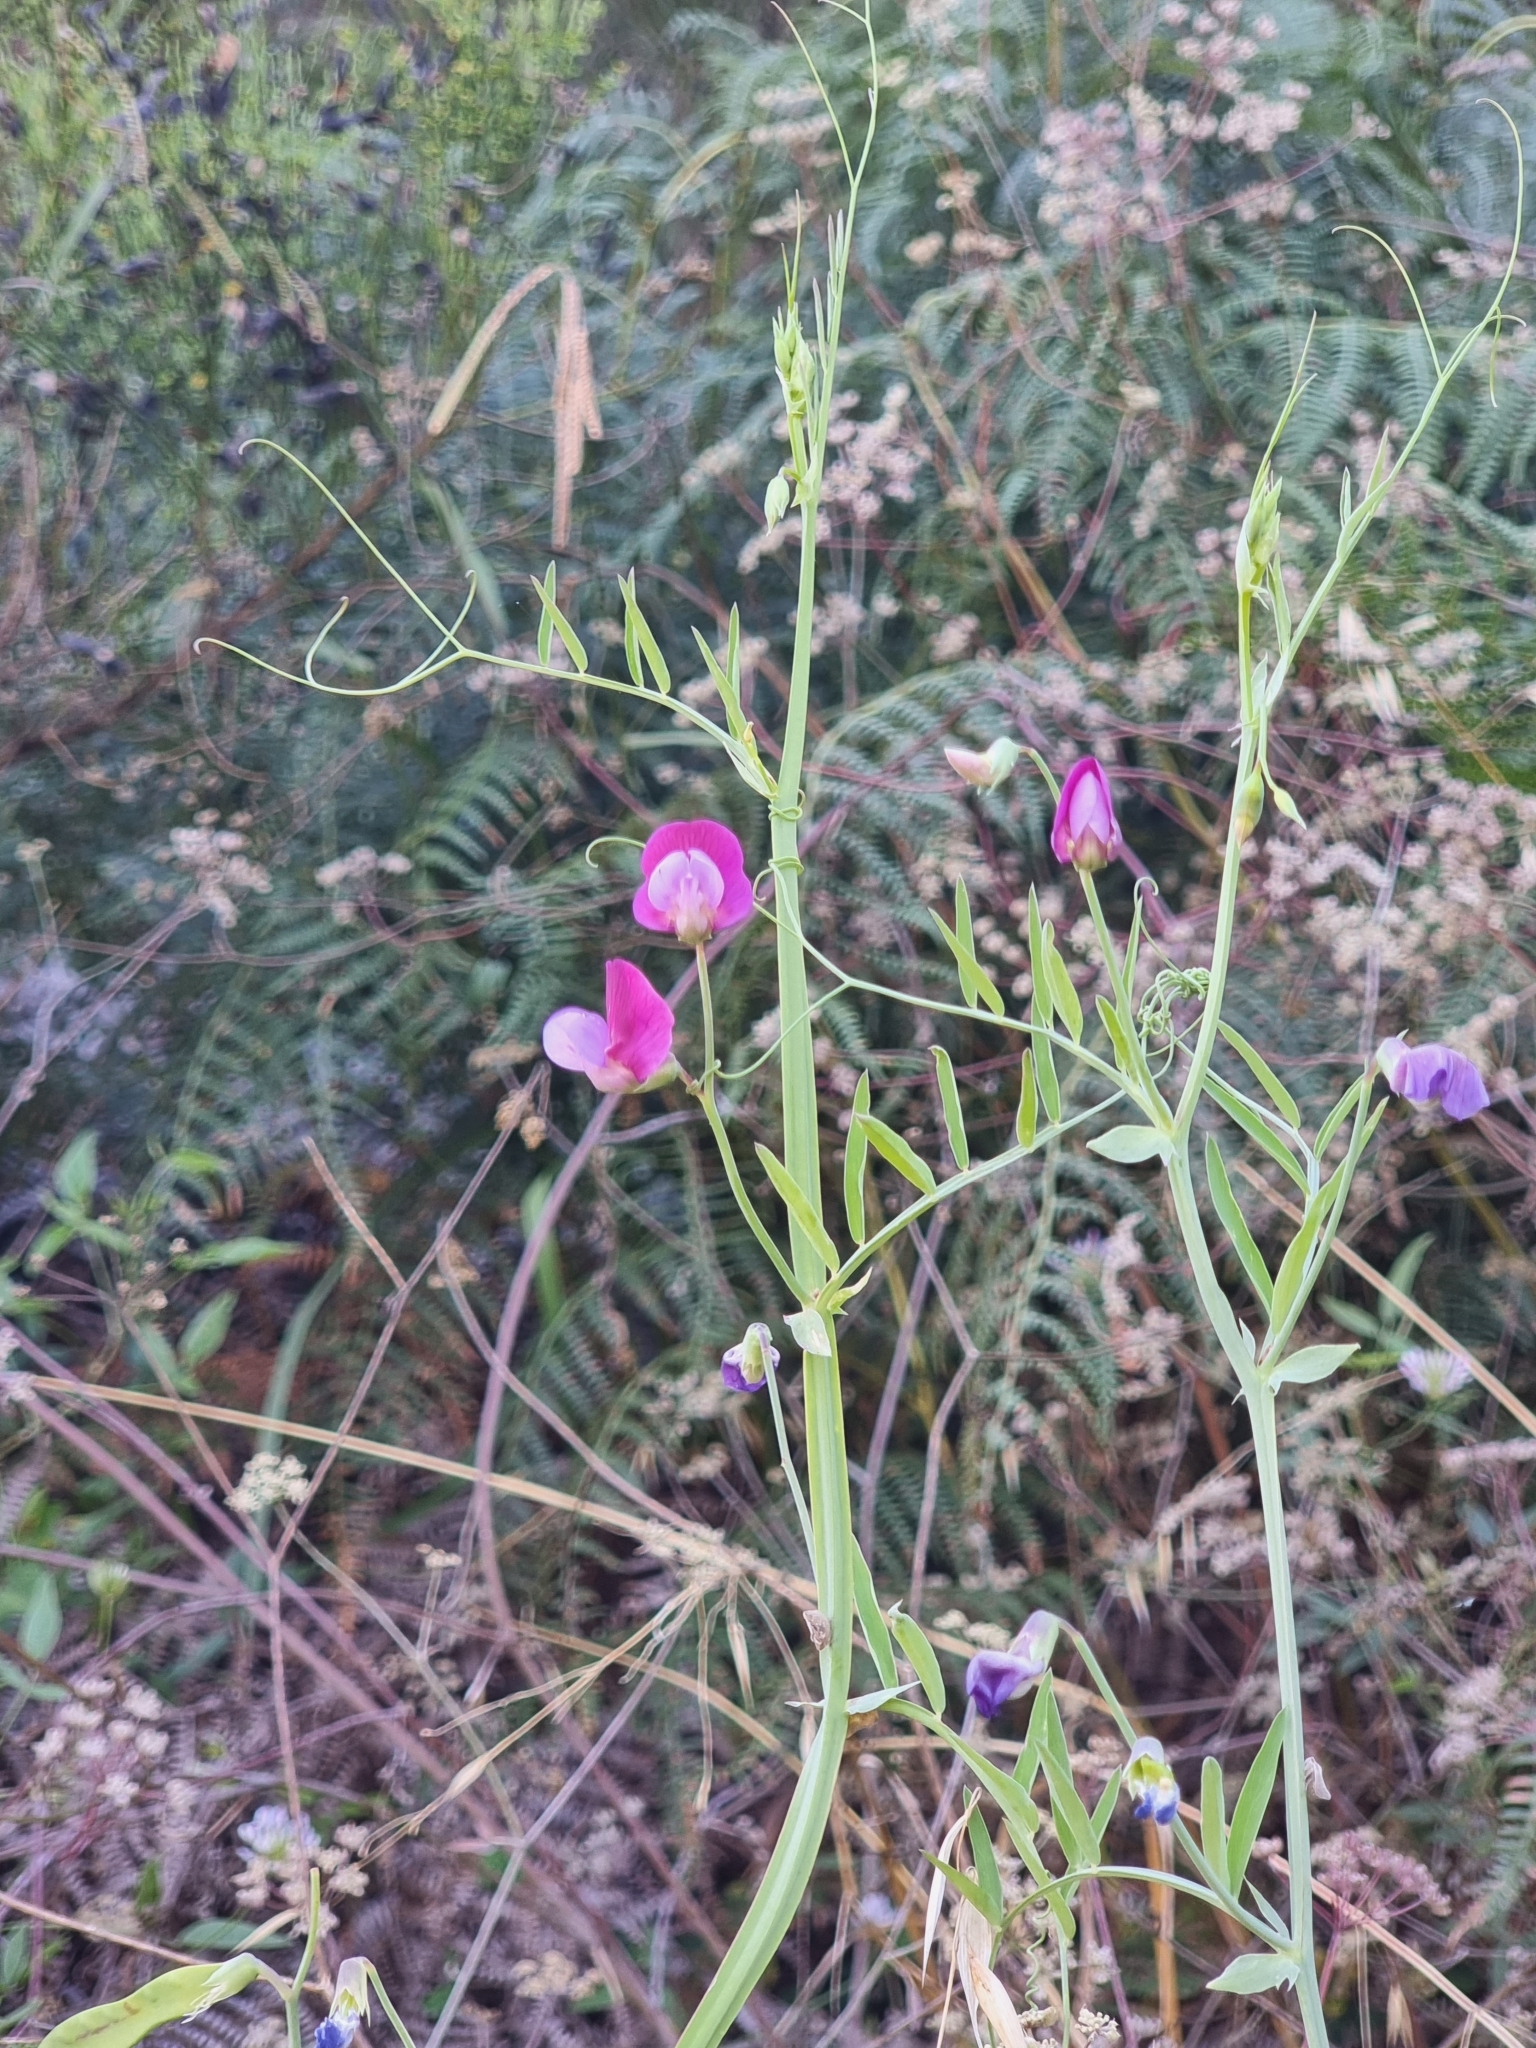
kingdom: Plantae
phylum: Tracheophyta
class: Magnoliopsida
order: Fabales
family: Fabaceae
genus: Lathyrus
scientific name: Lathyrus clymenum
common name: Spanish vetchling
